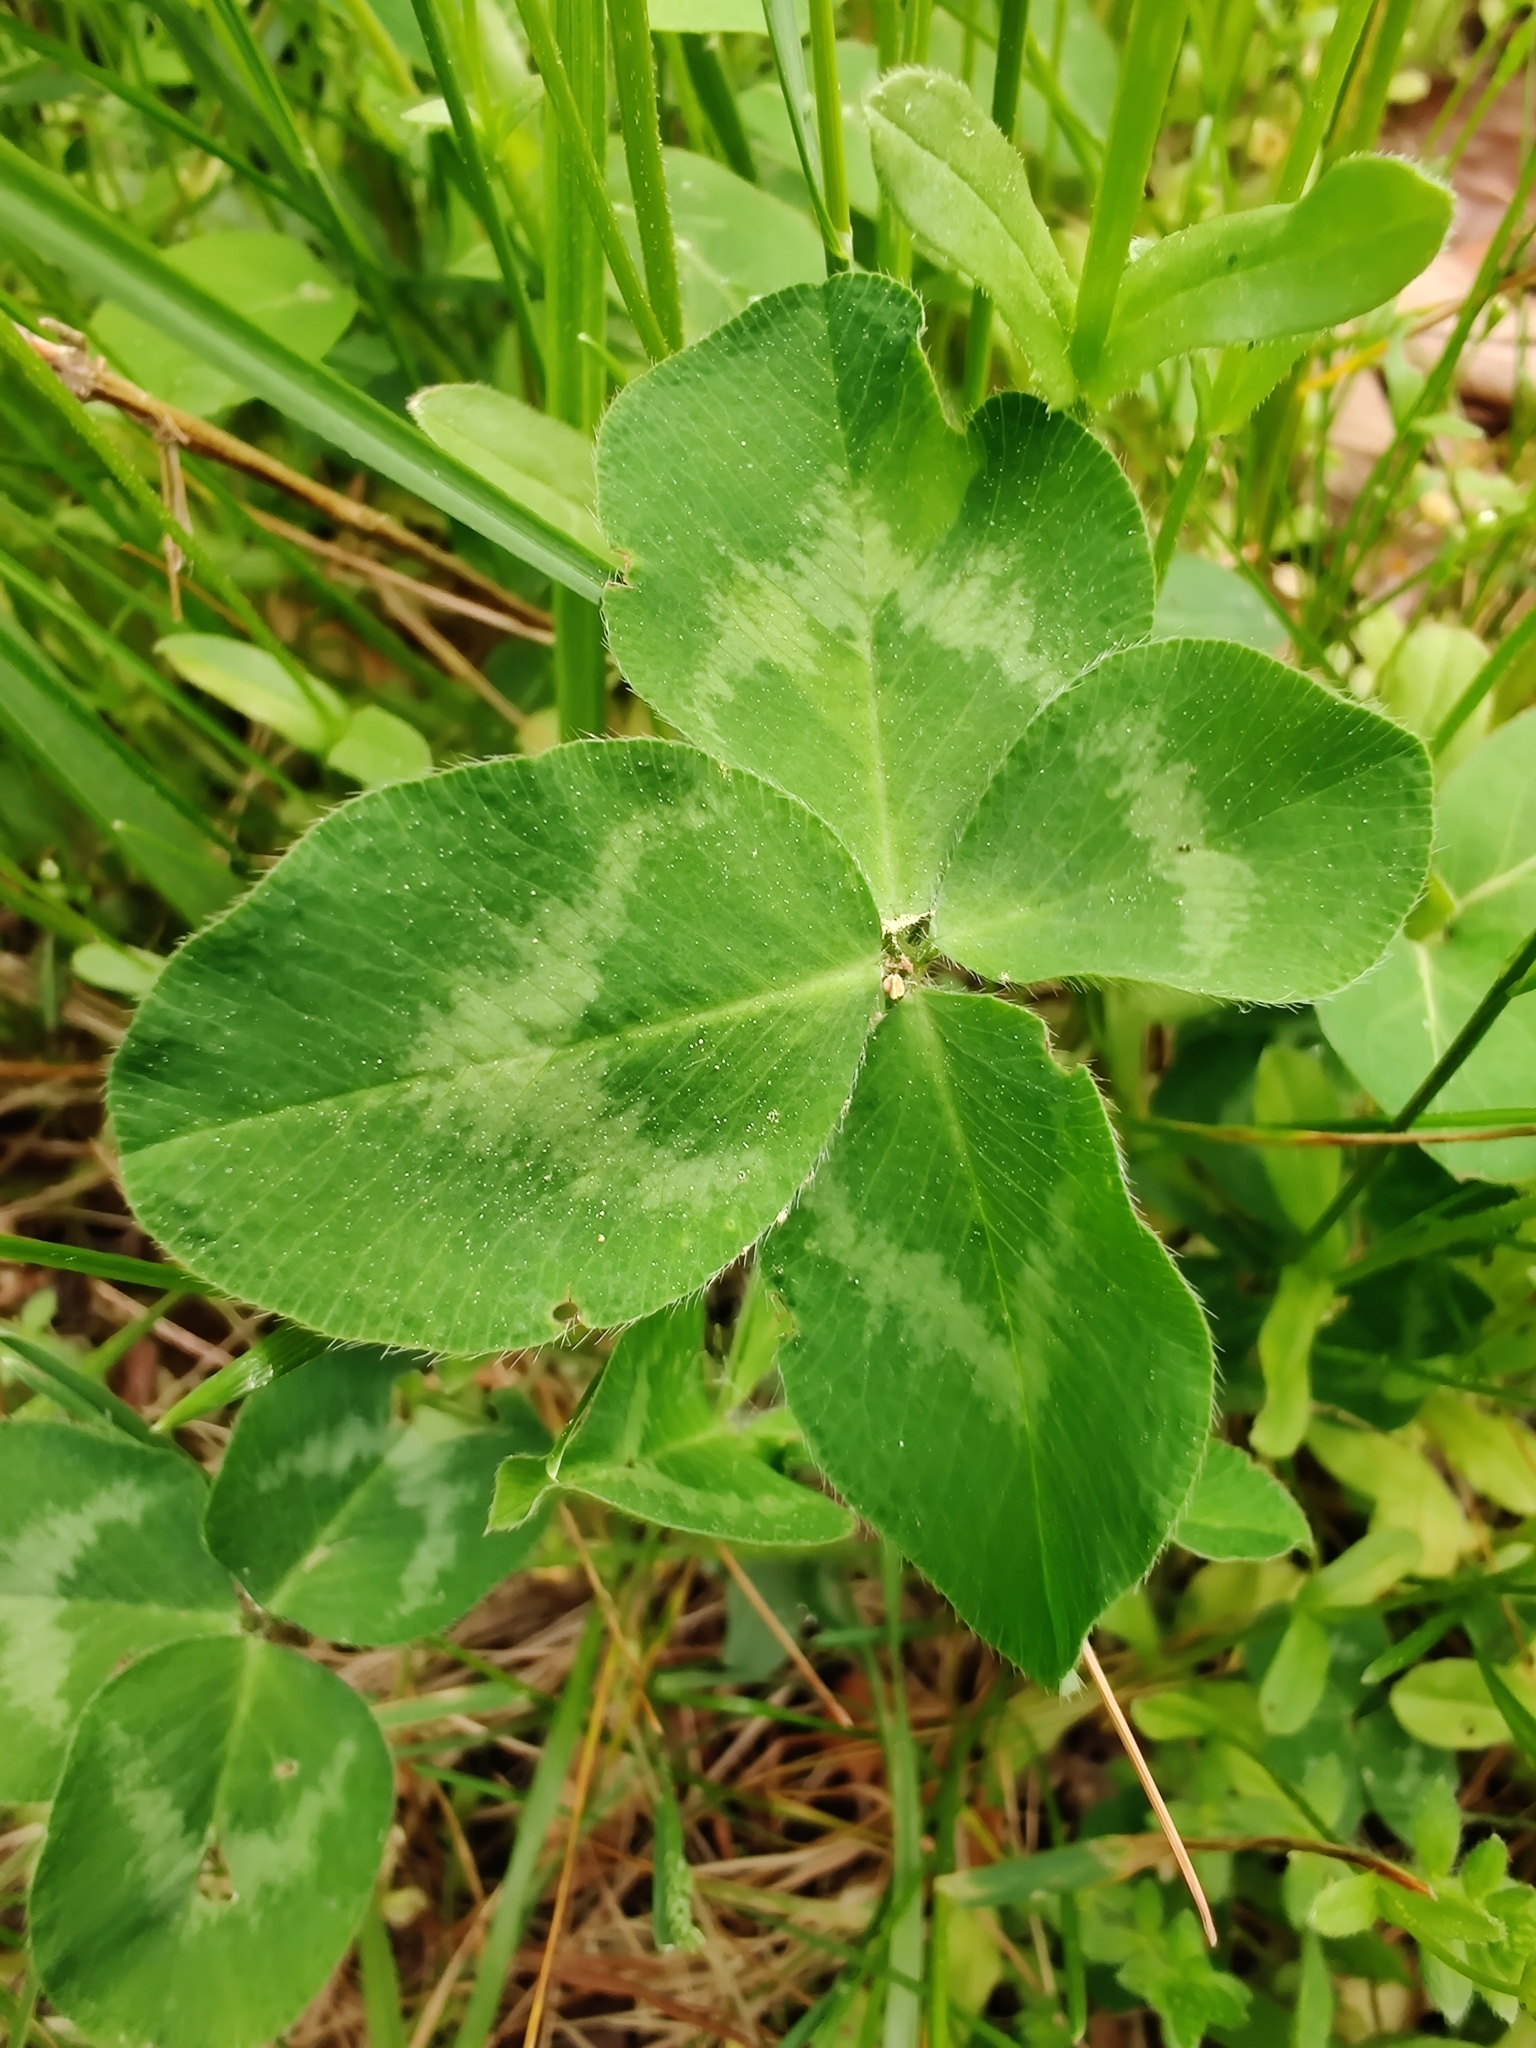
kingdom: Plantae
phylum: Tracheophyta
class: Magnoliopsida
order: Fabales
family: Fabaceae
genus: Trifolium
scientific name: Trifolium pratense
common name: Red clover
